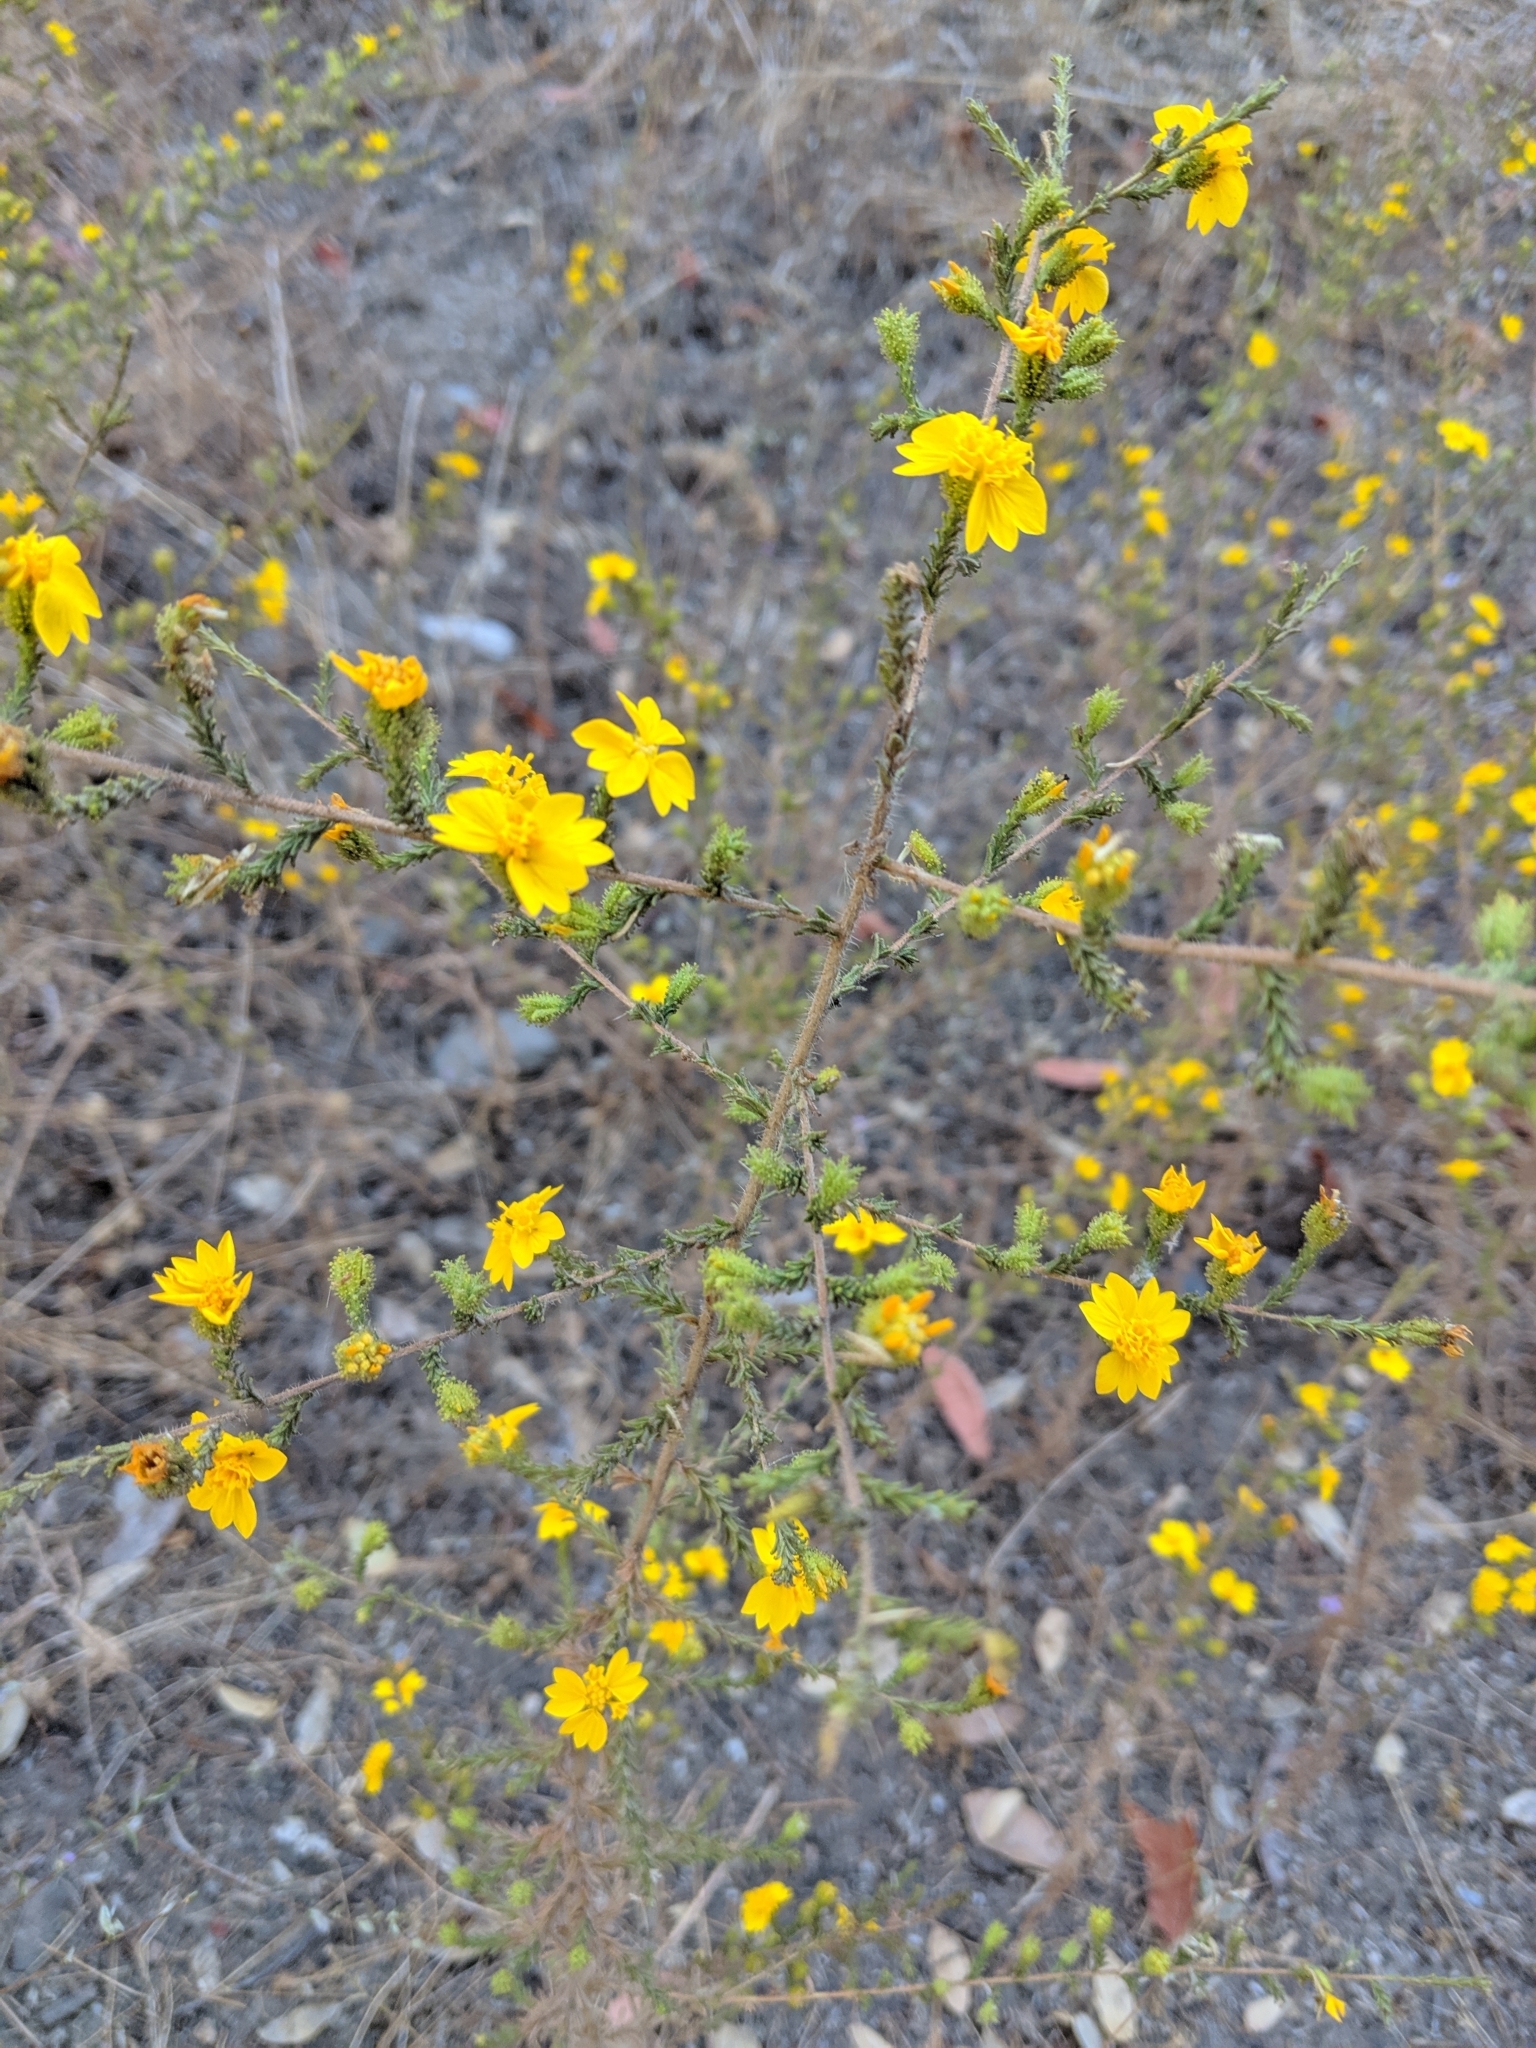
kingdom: Plantae
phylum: Tracheophyta
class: Magnoliopsida
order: Asterales
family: Asteraceae
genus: Holocarpha
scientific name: Holocarpha heermannii
